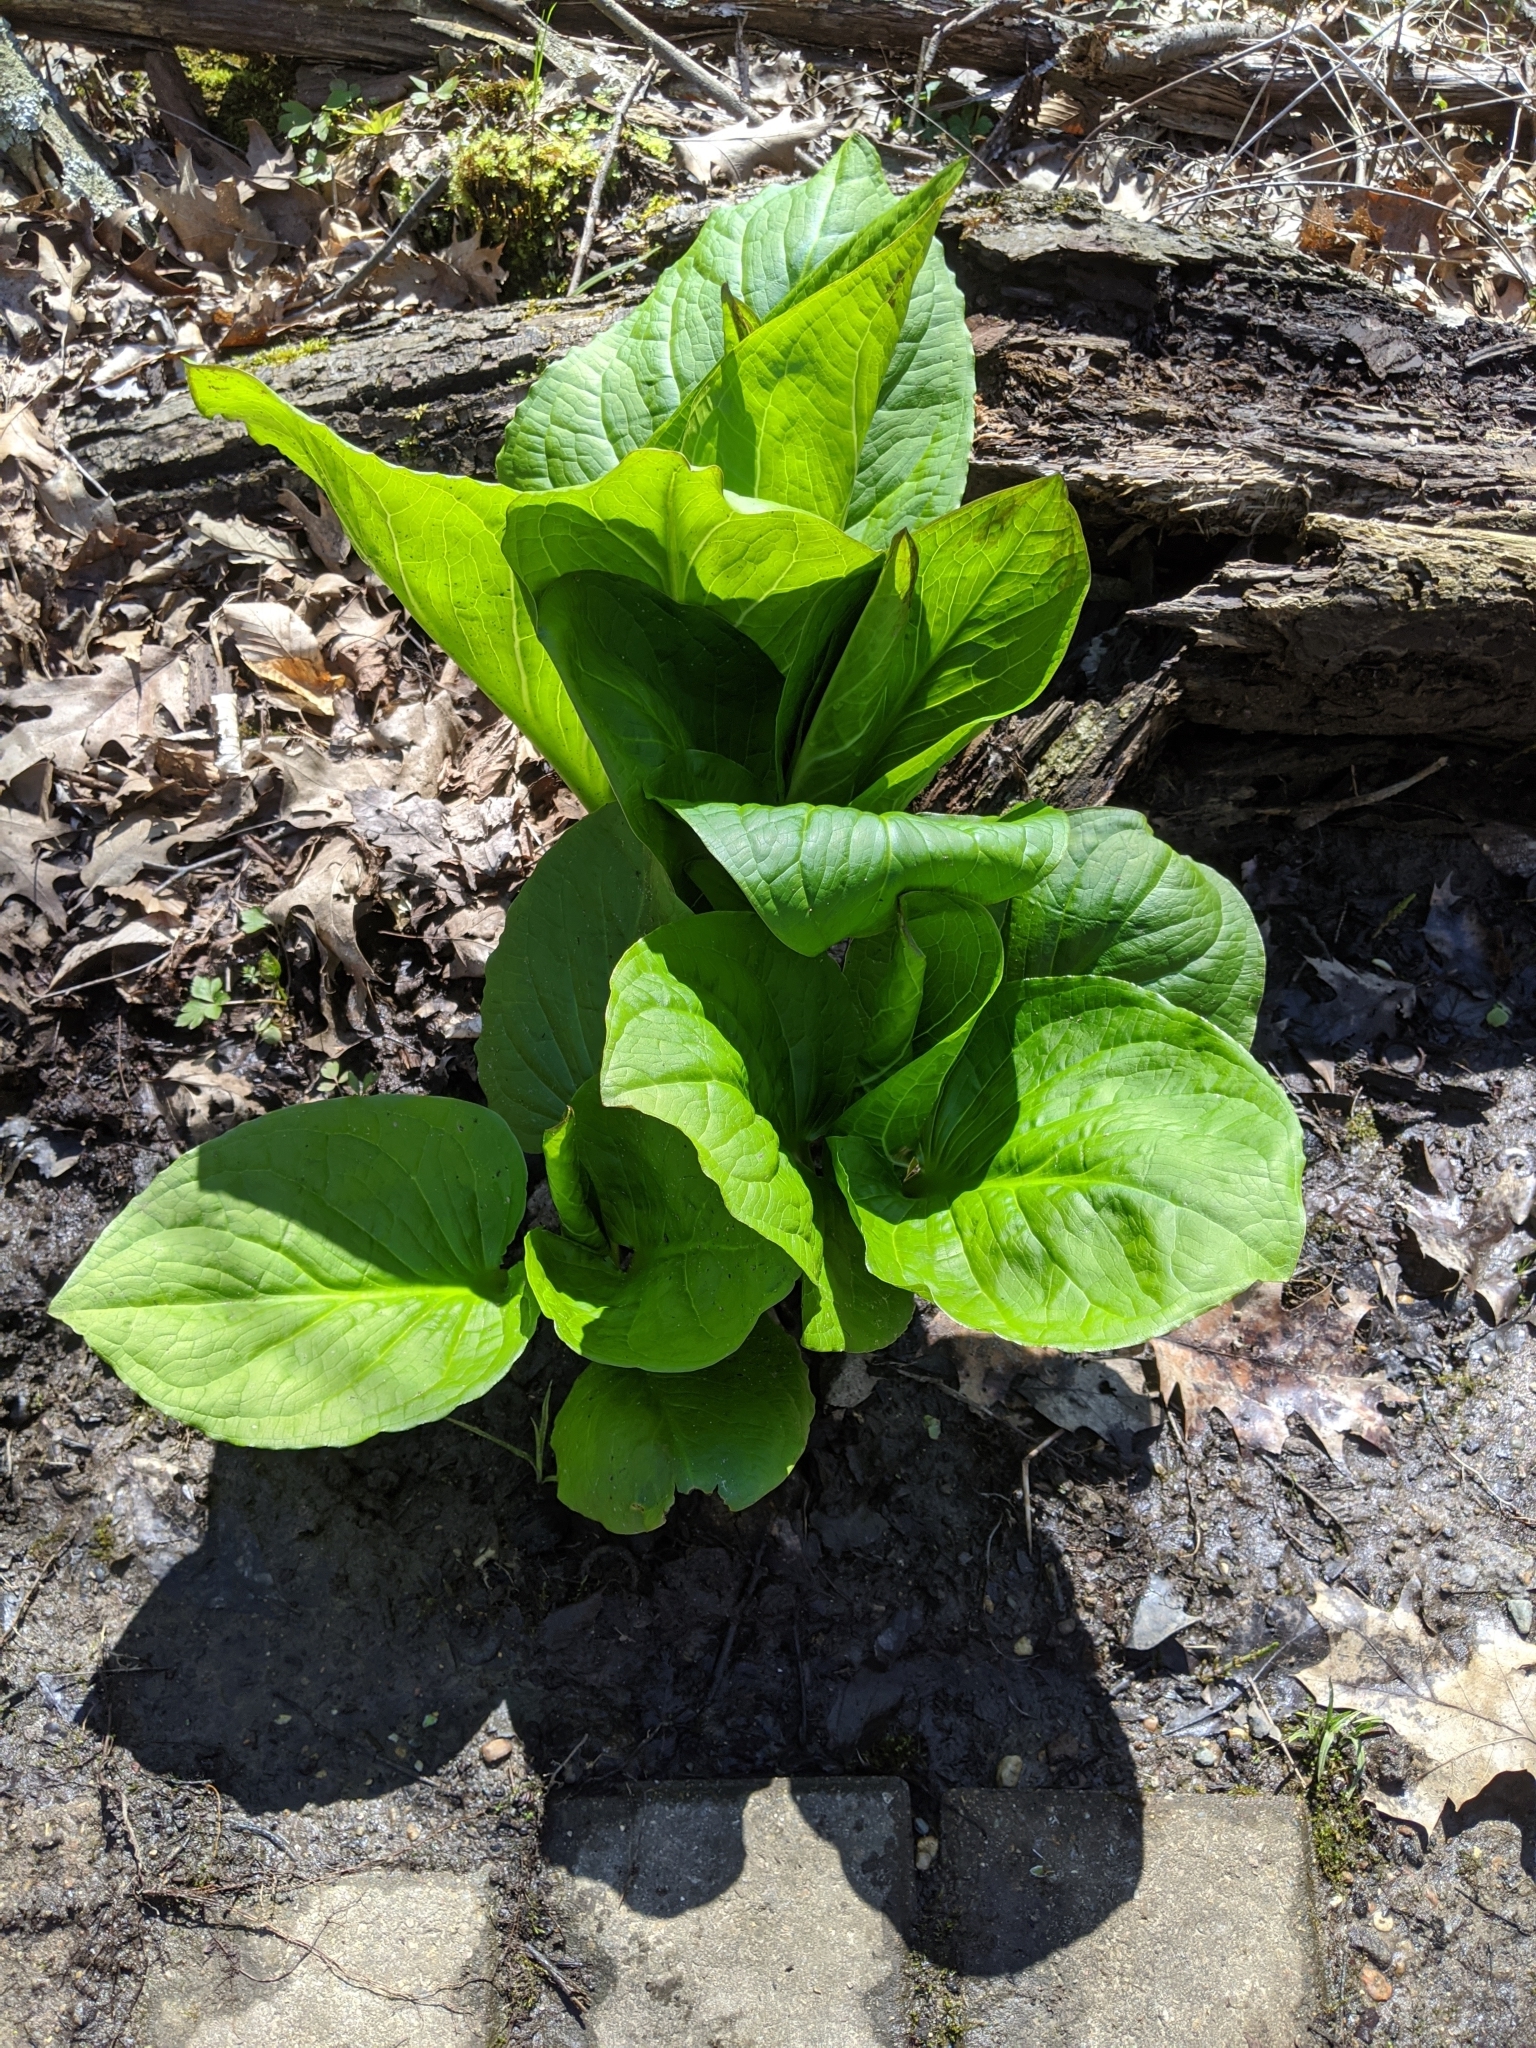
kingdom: Plantae
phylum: Tracheophyta
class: Liliopsida
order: Alismatales
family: Araceae
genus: Symplocarpus
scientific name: Symplocarpus foetidus
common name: Eastern skunk cabbage
